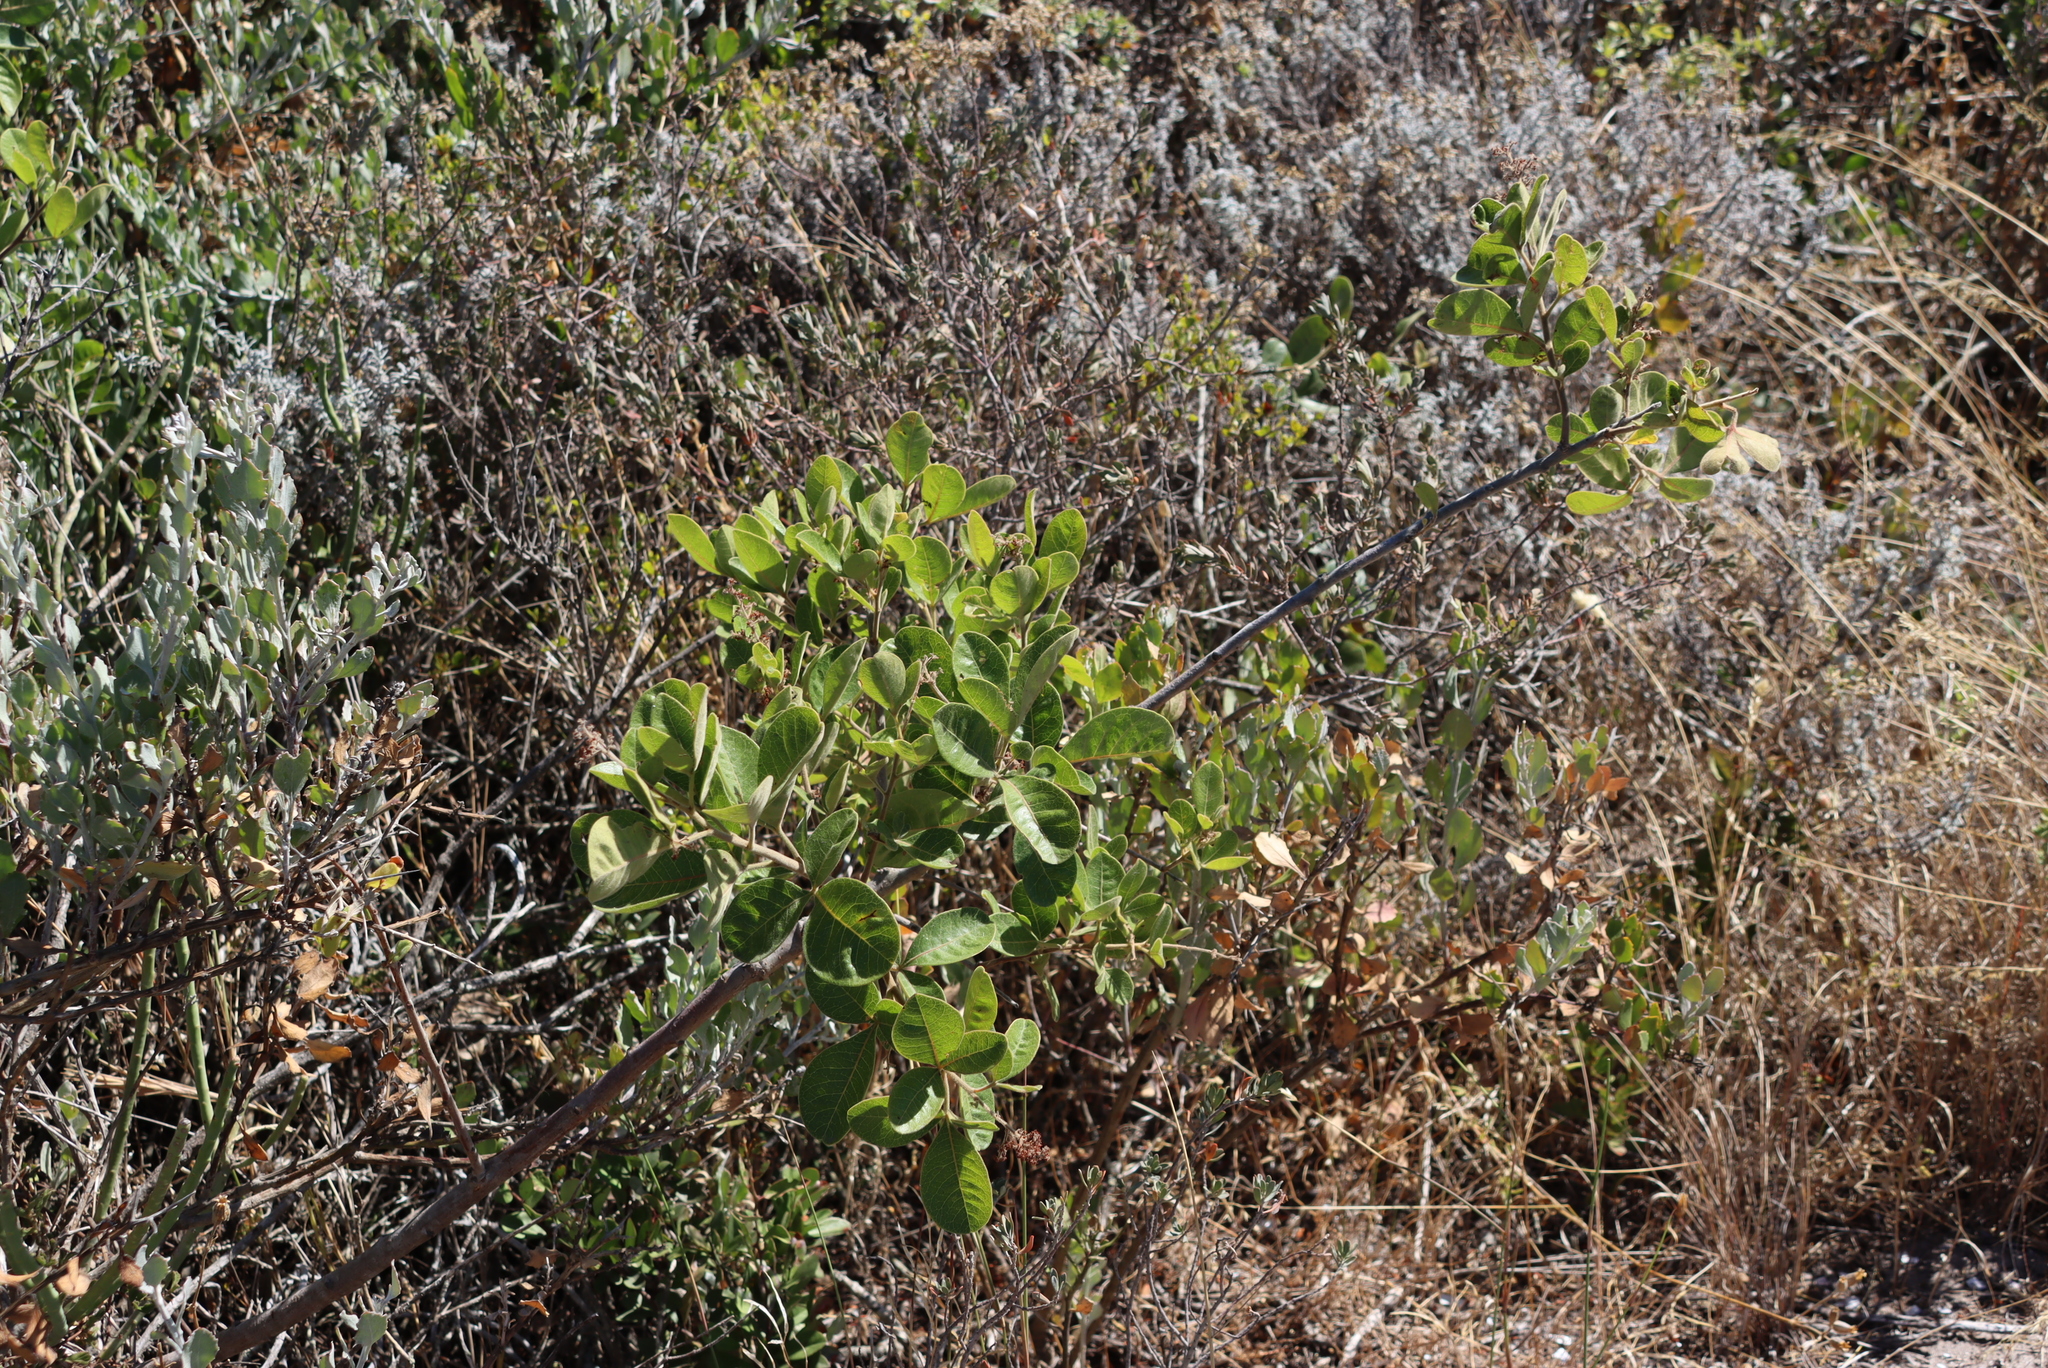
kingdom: Plantae
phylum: Tracheophyta
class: Magnoliopsida
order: Sapindales
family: Anacardiaceae
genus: Searsia
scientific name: Searsia laevigata
